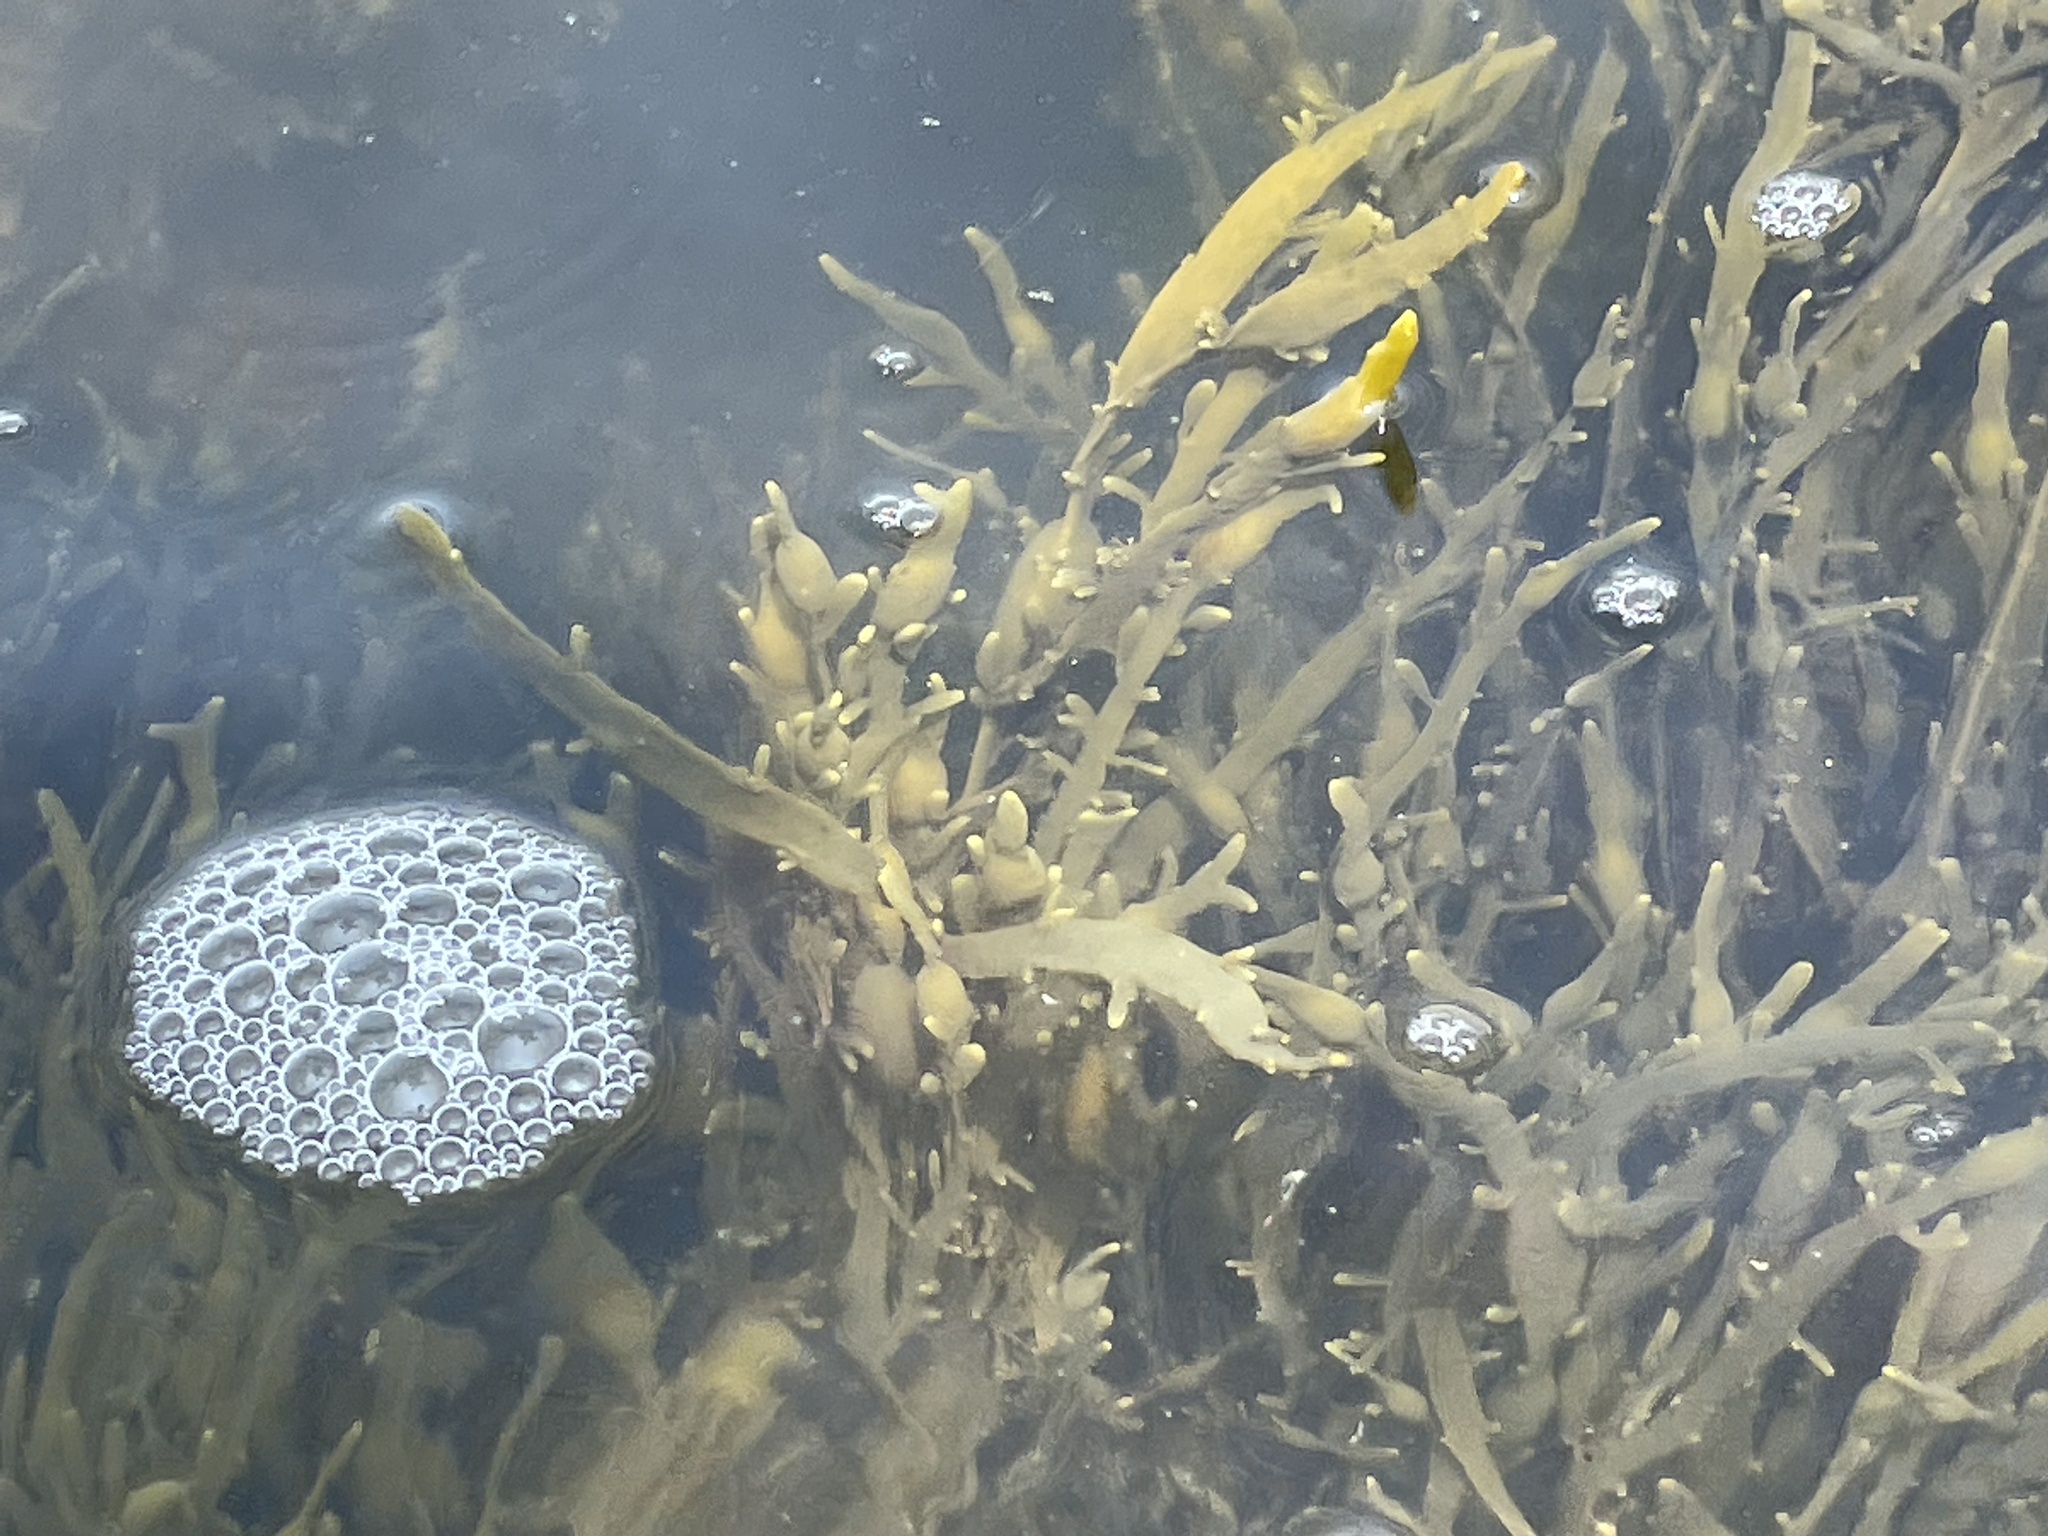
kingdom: Chromista
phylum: Ochrophyta
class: Phaeophyceae
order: Fucales
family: Fucaceae
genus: Ascophyllum
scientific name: Ascophyllum nodosum
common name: Knotted wrack
